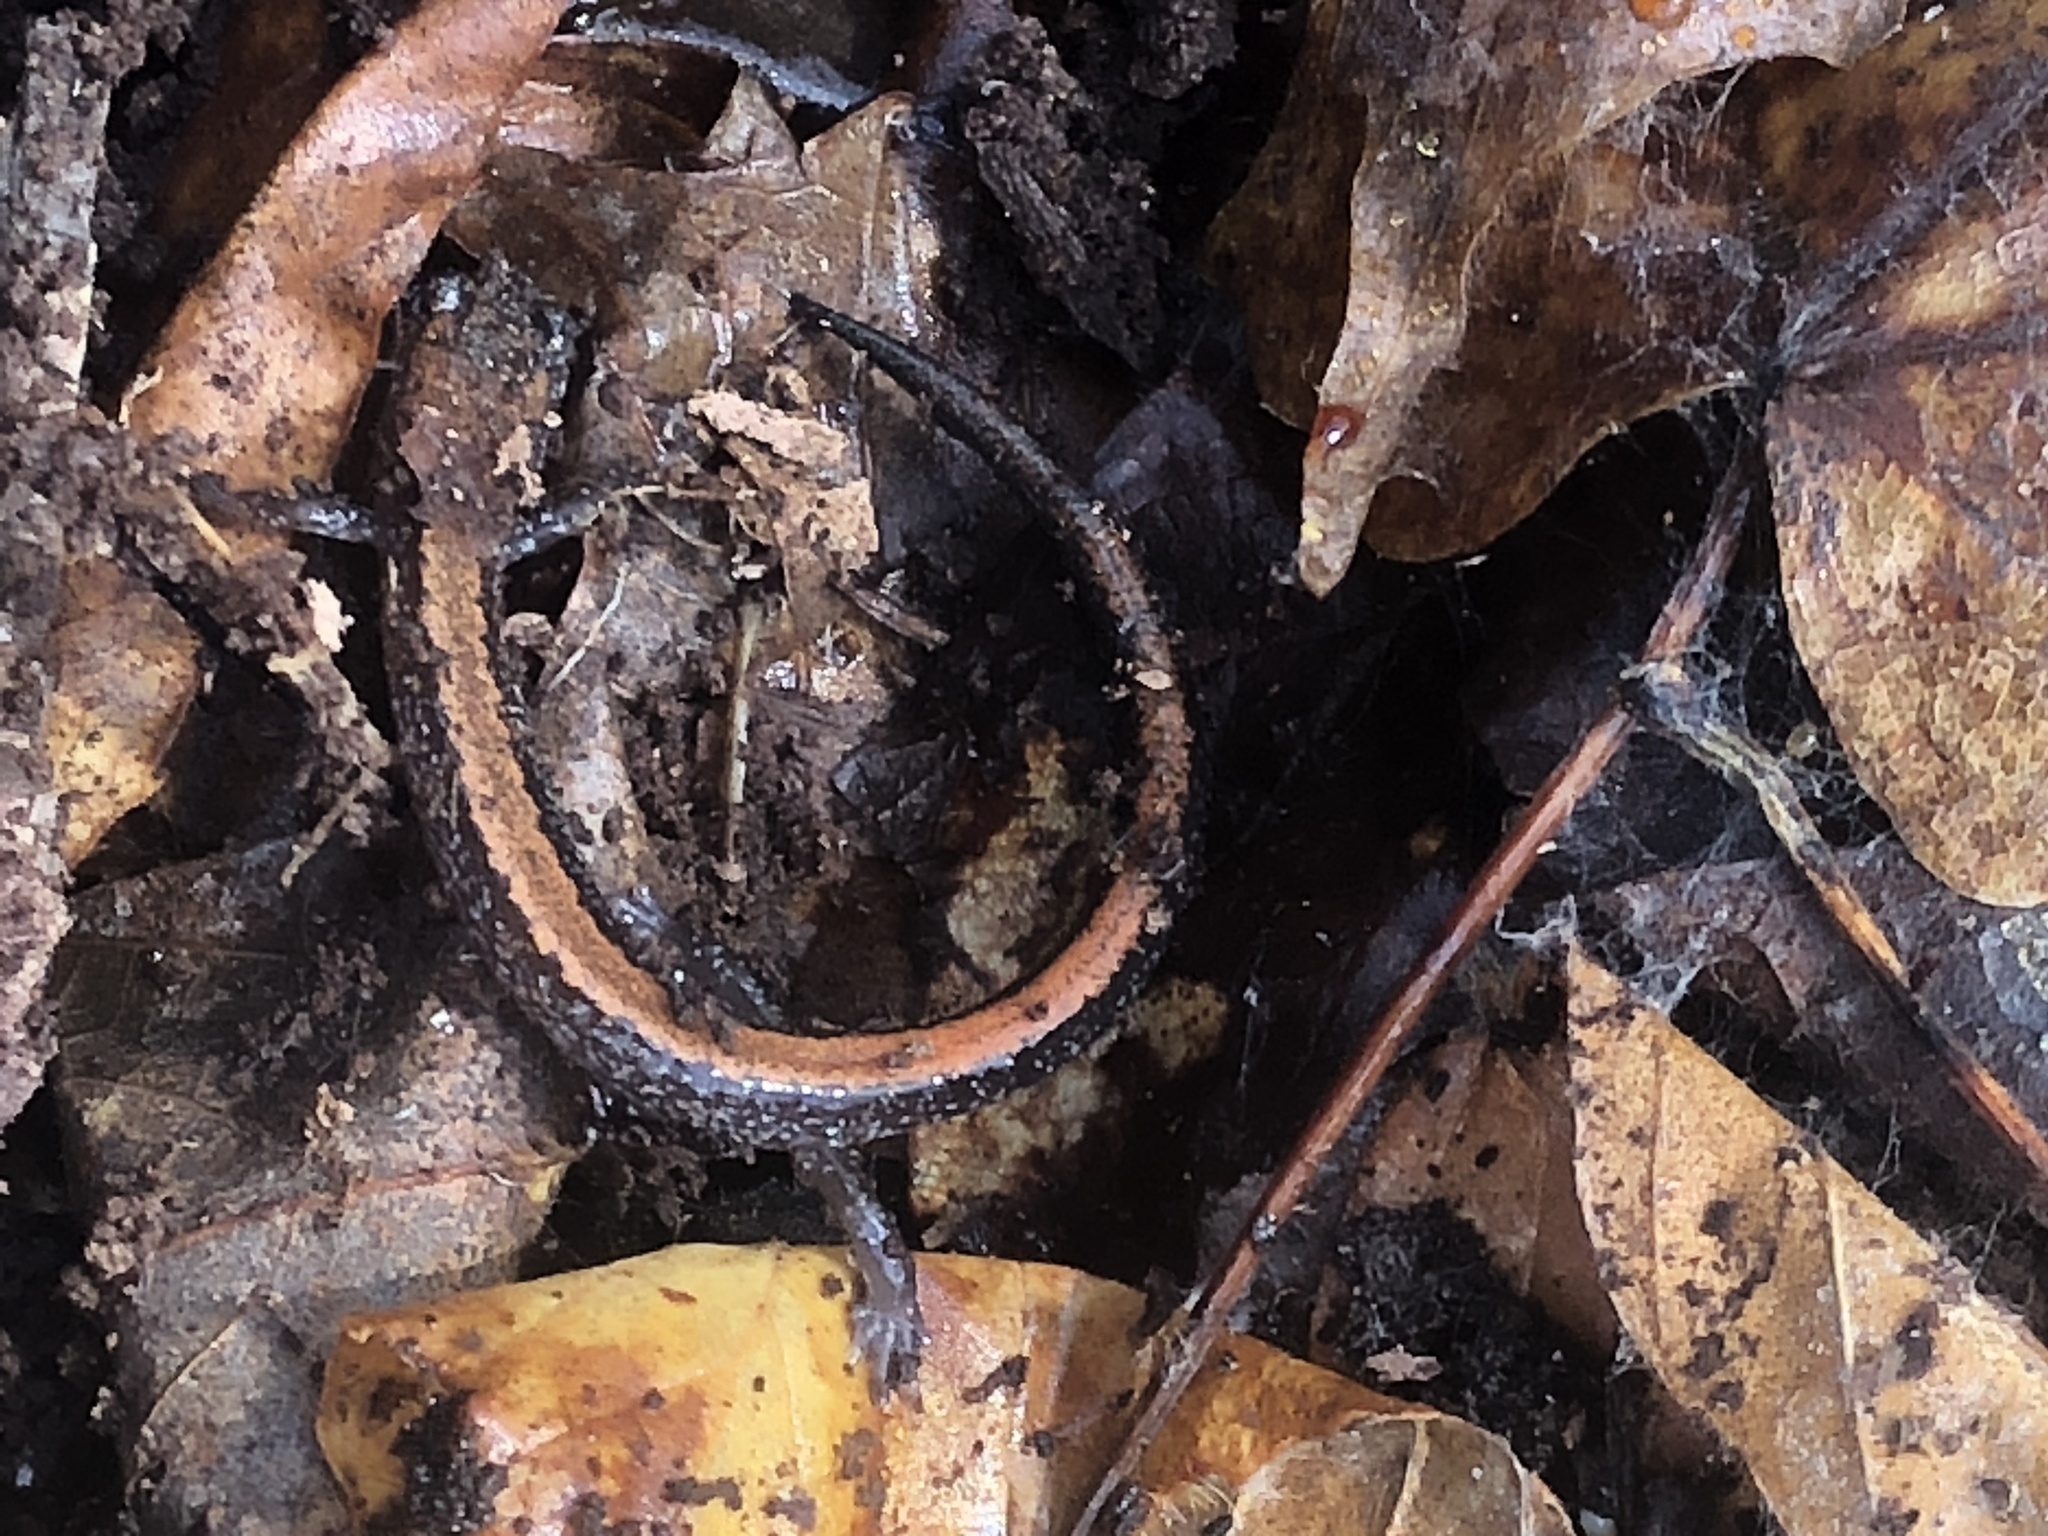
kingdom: Animalia
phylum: Chordata
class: Amphibia
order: Caudata
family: Plethodontidae
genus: Plethodon
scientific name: Plethodon cinereus
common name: Redback salamander
